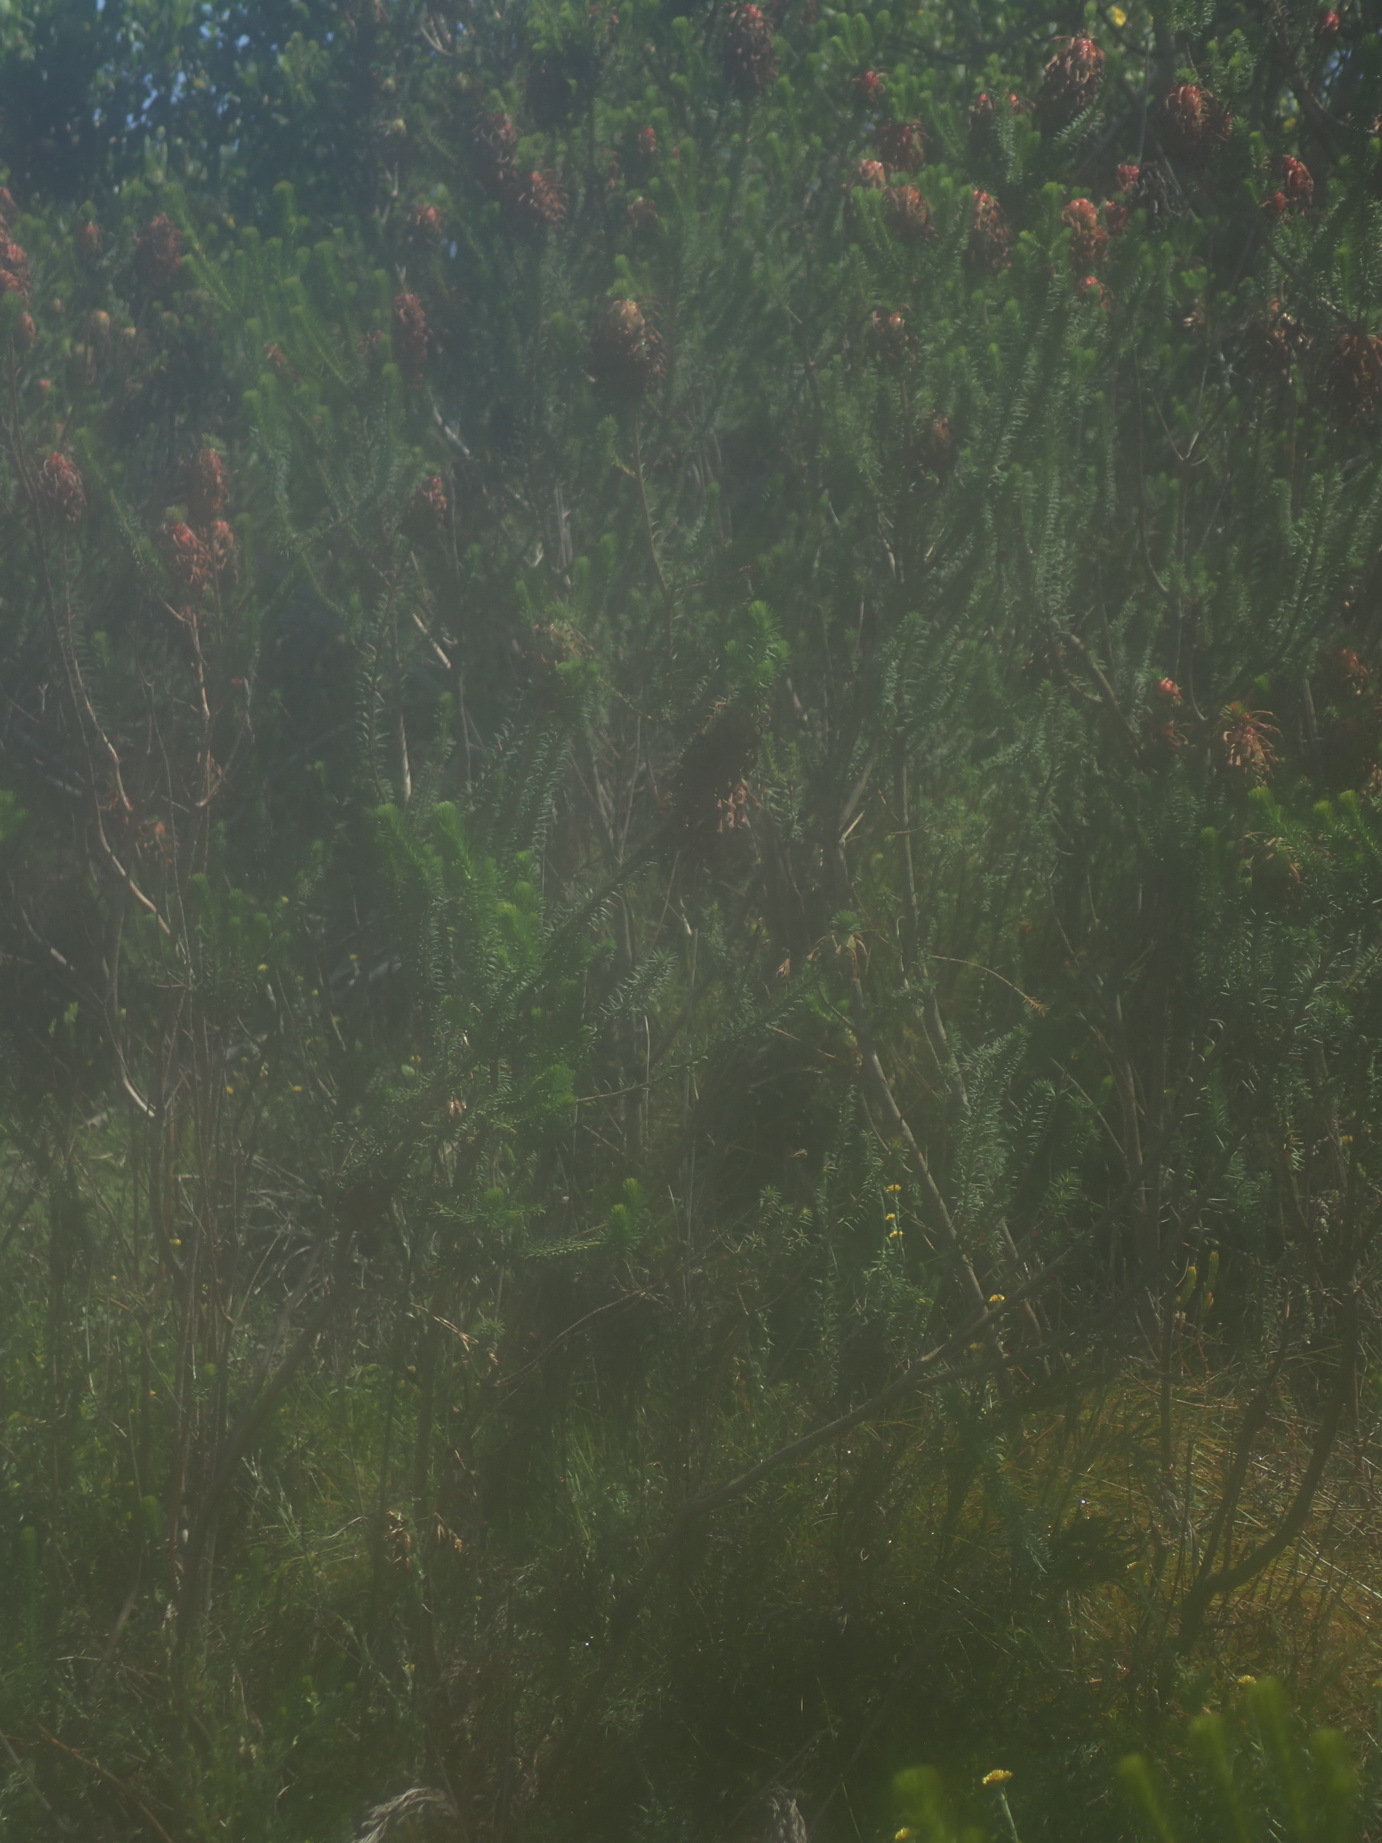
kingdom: Plantae
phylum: Tracheophyta
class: Magnoliopsida
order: Ericales
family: Ericaceae
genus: Erica
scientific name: Erica sessiliflora
